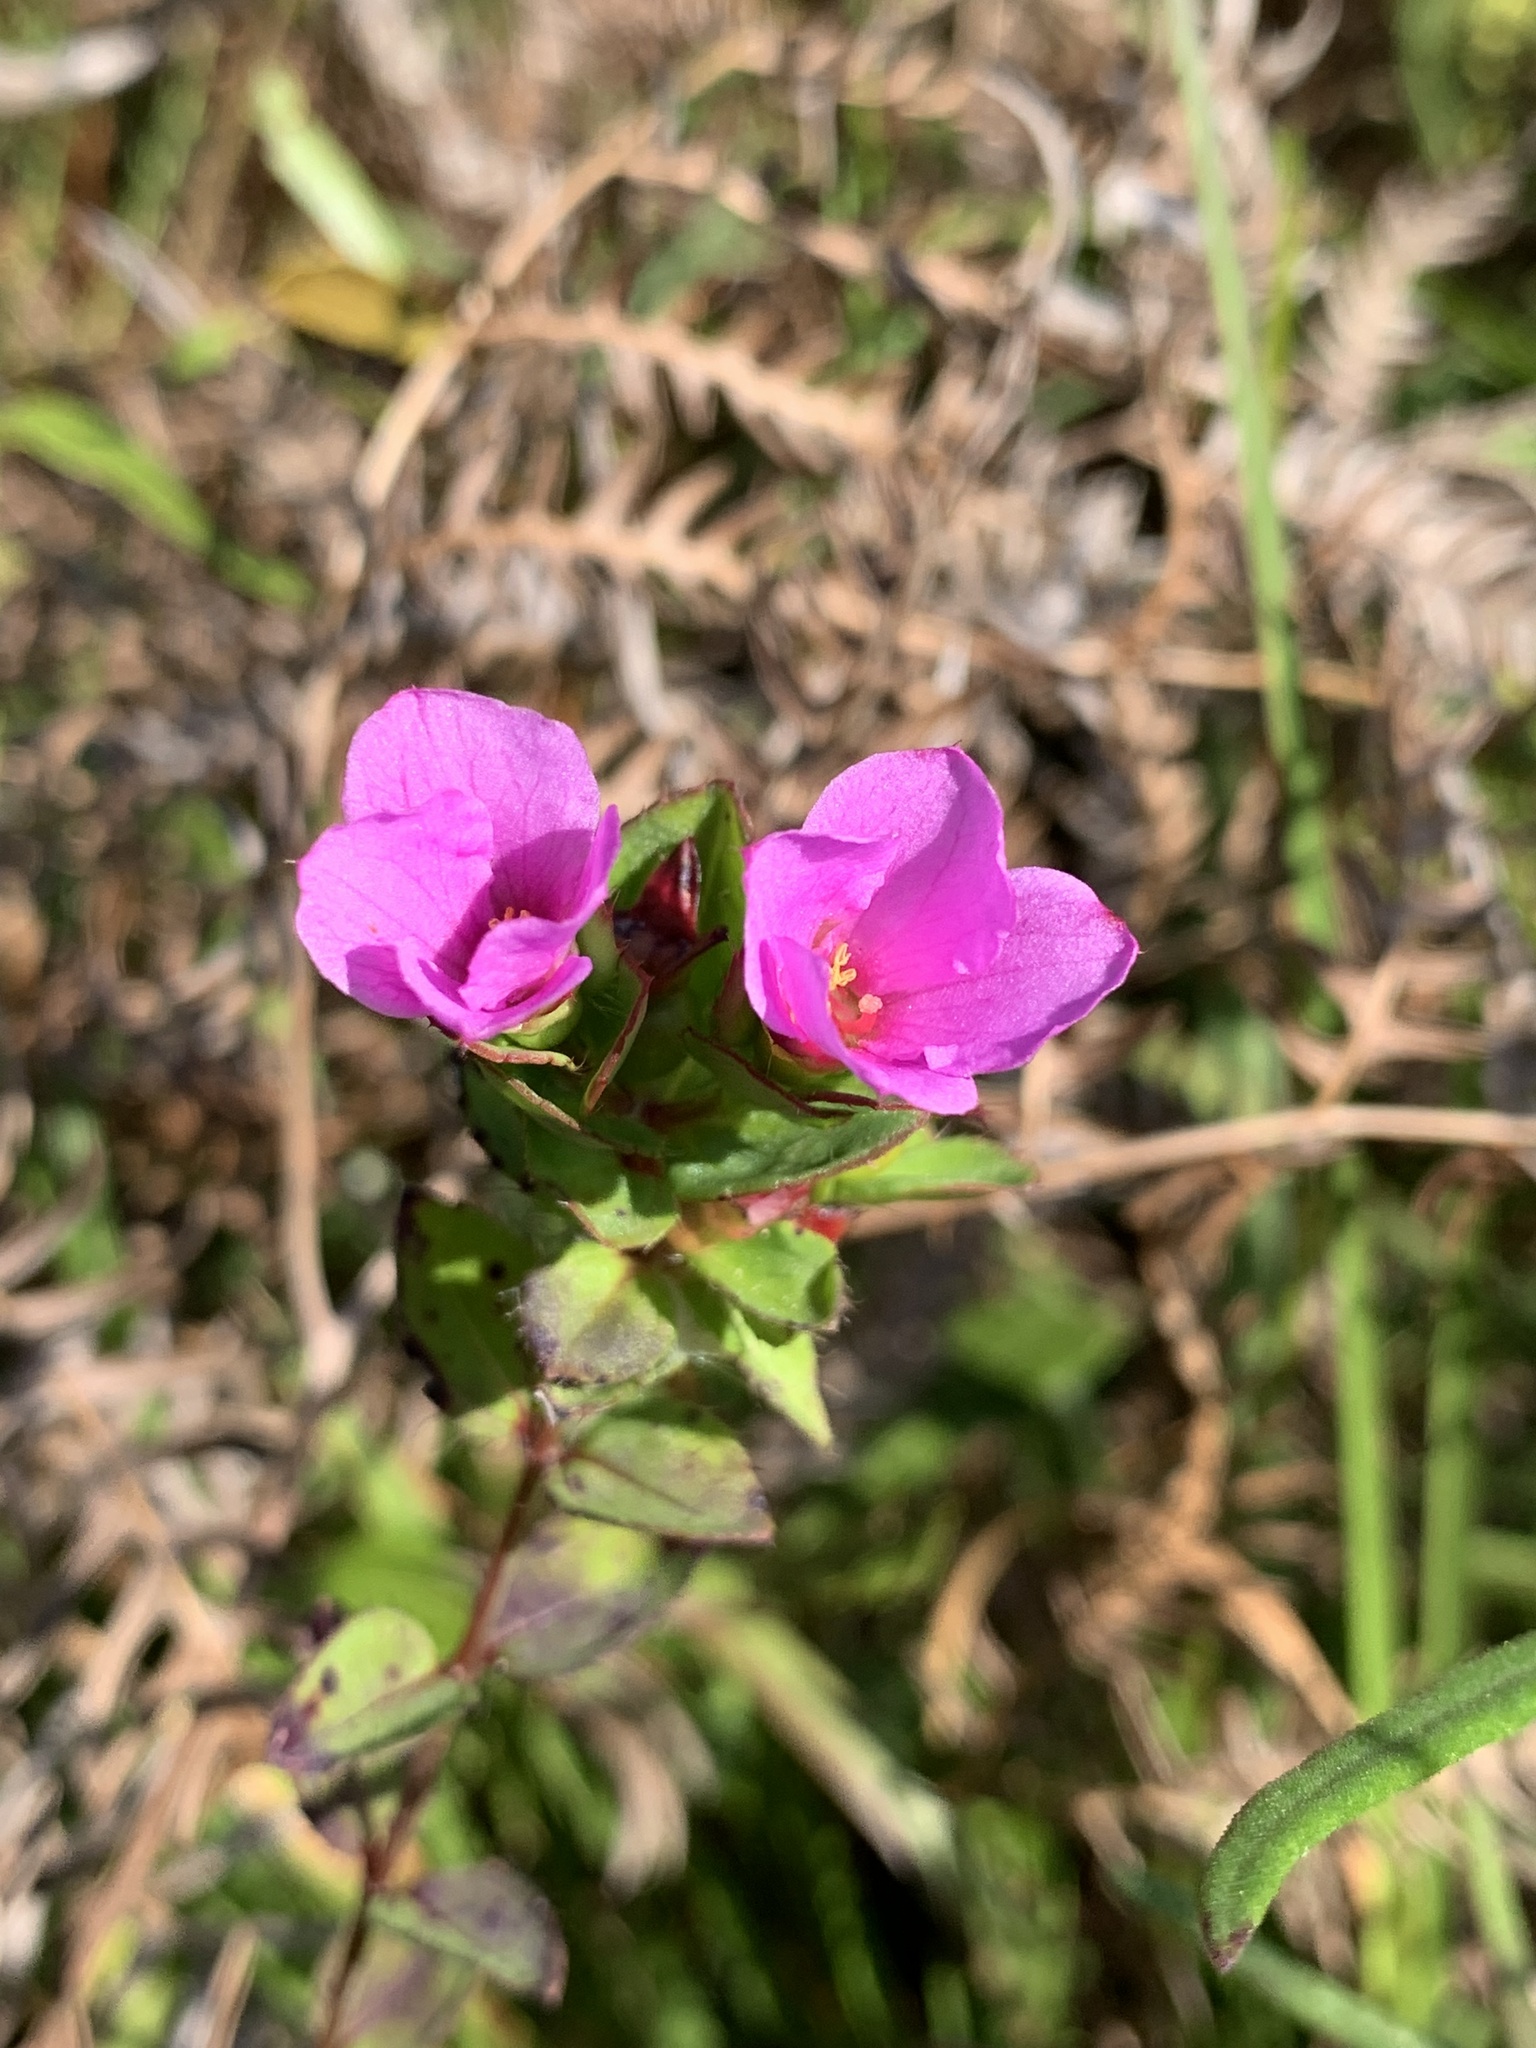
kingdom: Plantae
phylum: Tracheophyta
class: Magnoliopsida
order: Myrtales
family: Melastomataceae
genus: Rhexia
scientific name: Rhexia petiolata
